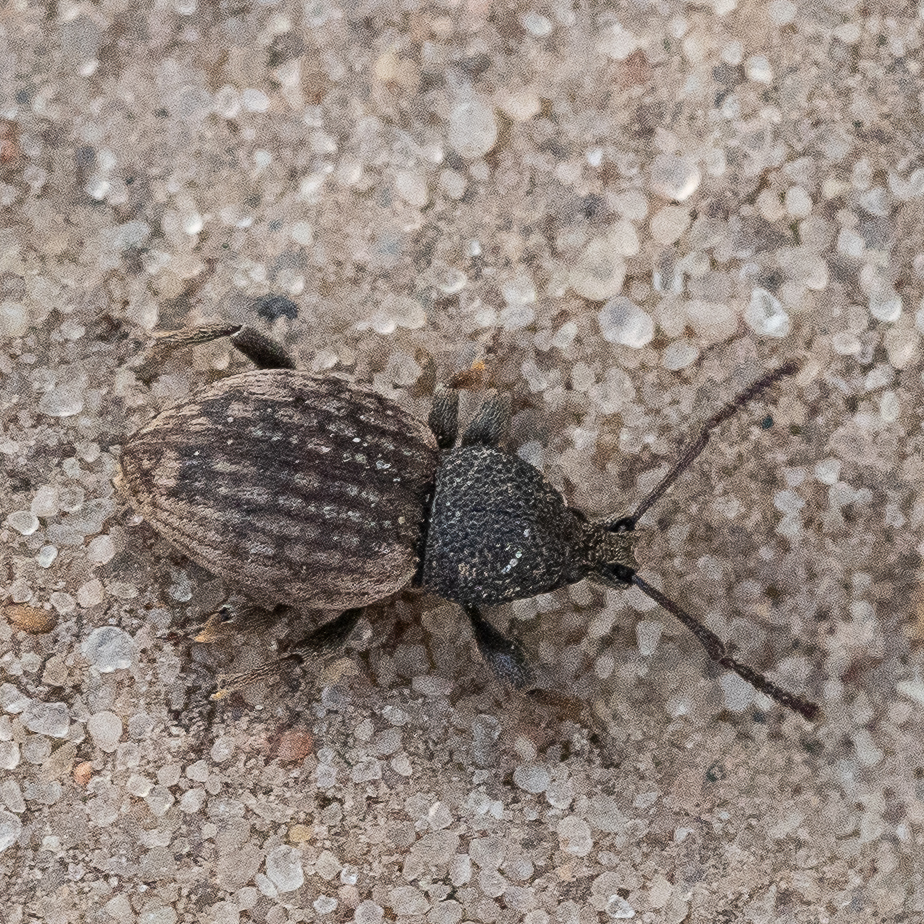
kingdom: Animalia
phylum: Arthropoda
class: Insecta
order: Coleoptera
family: Curculionidae
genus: Otiorhynchus
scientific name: Otiorhynchus raucus
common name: Weevil
